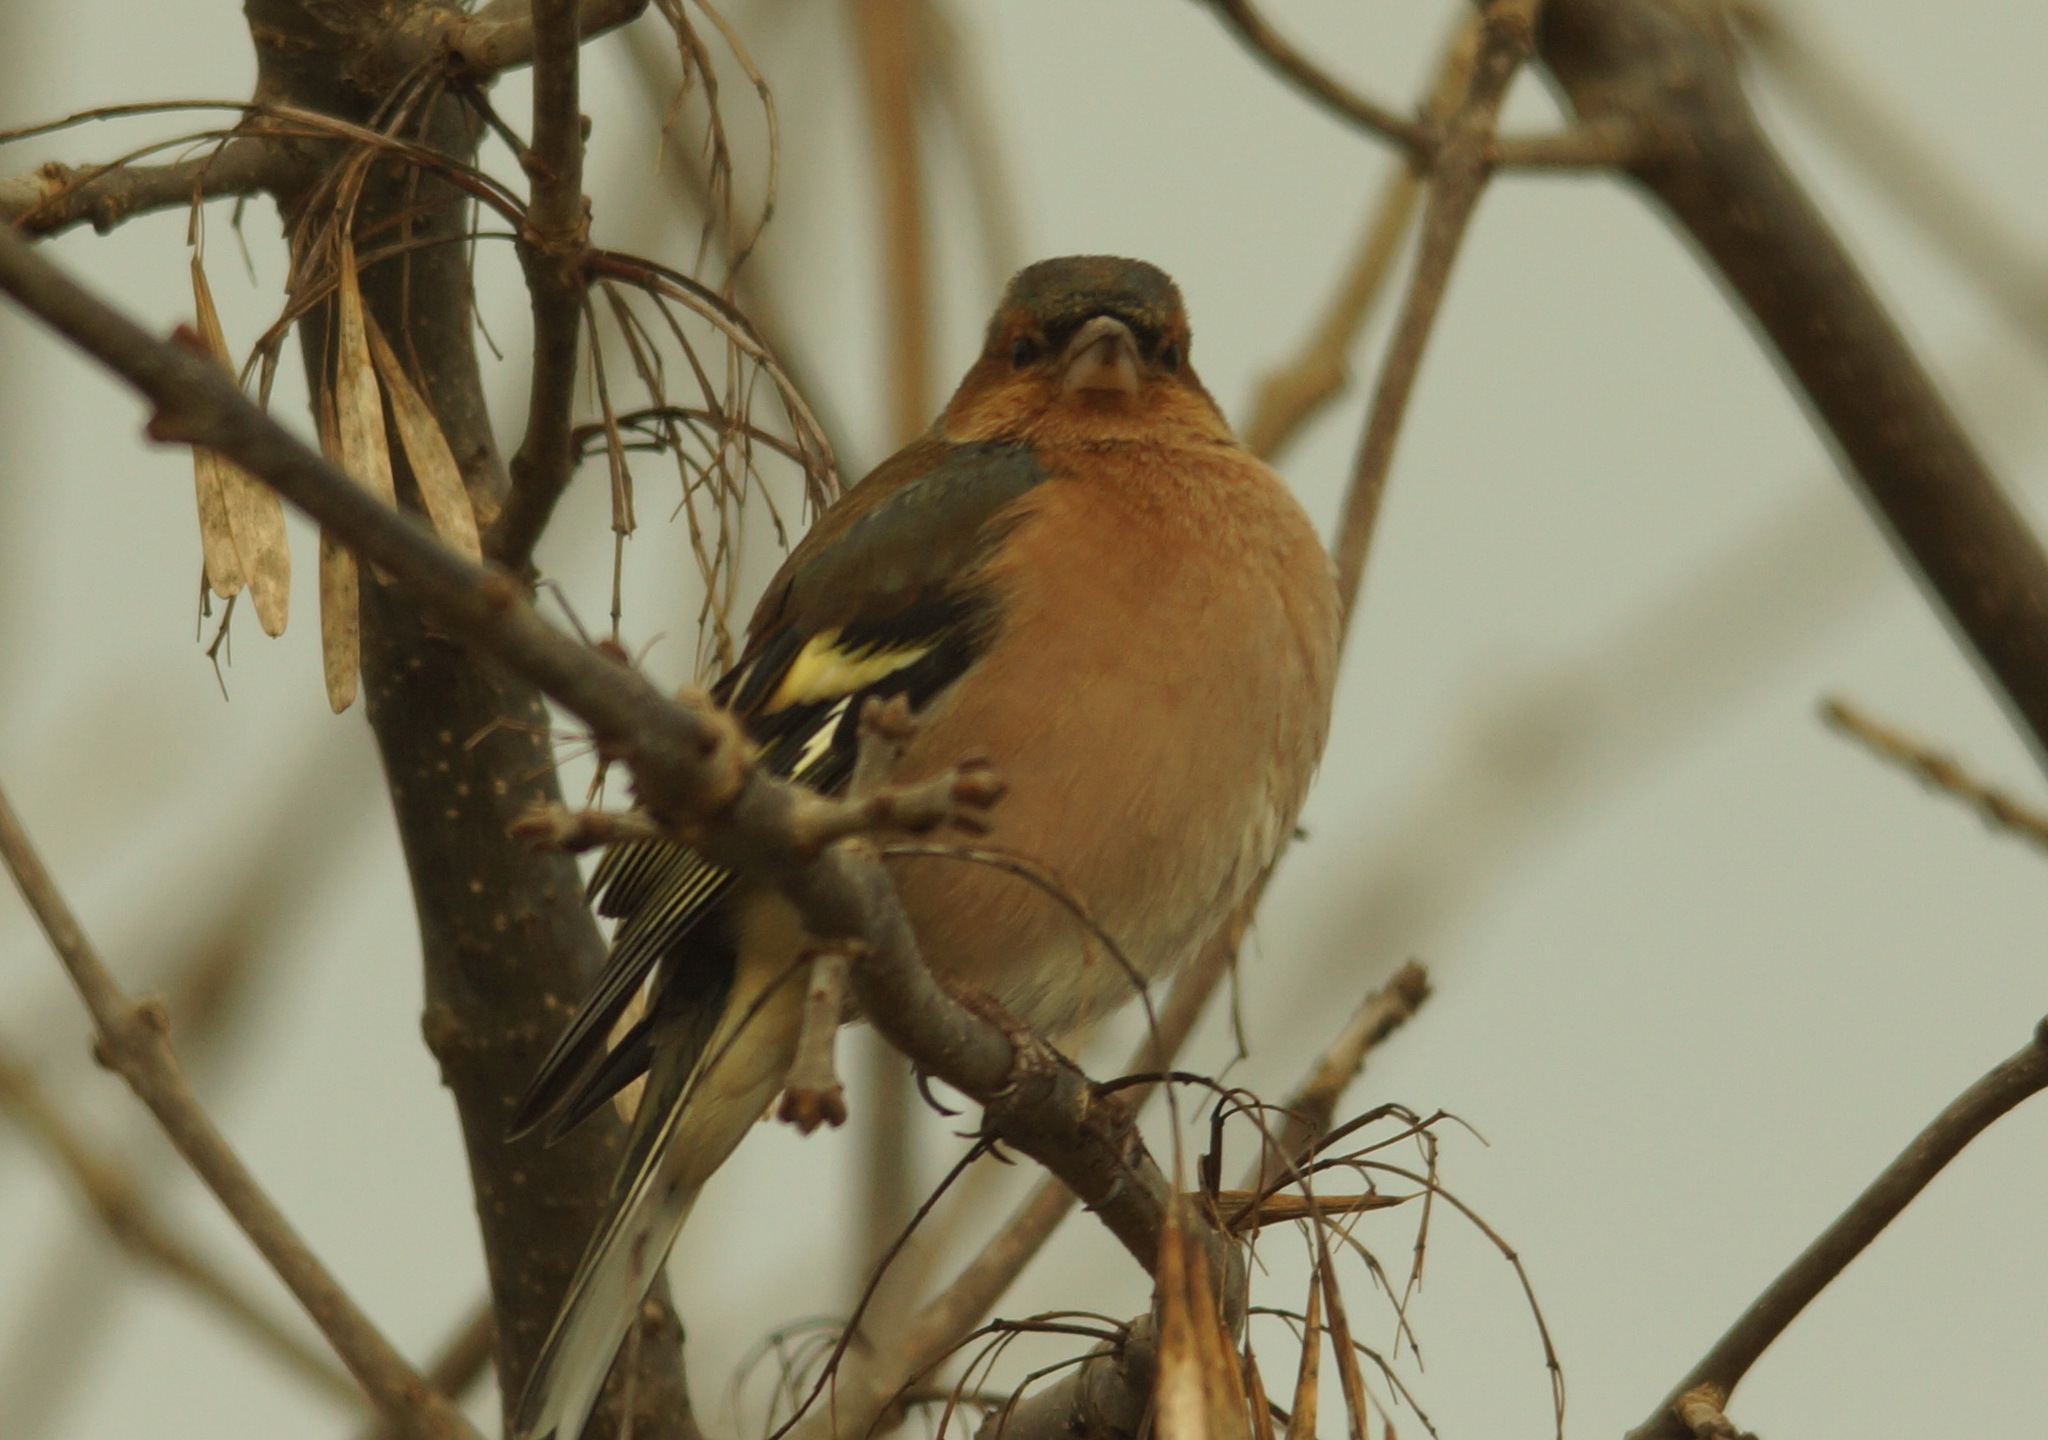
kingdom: Animalia
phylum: Chordata
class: Aves
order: Passeriformes
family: Fringillidae
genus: Fringilla
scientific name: Fringilla coelebs
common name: Common chaffinch
